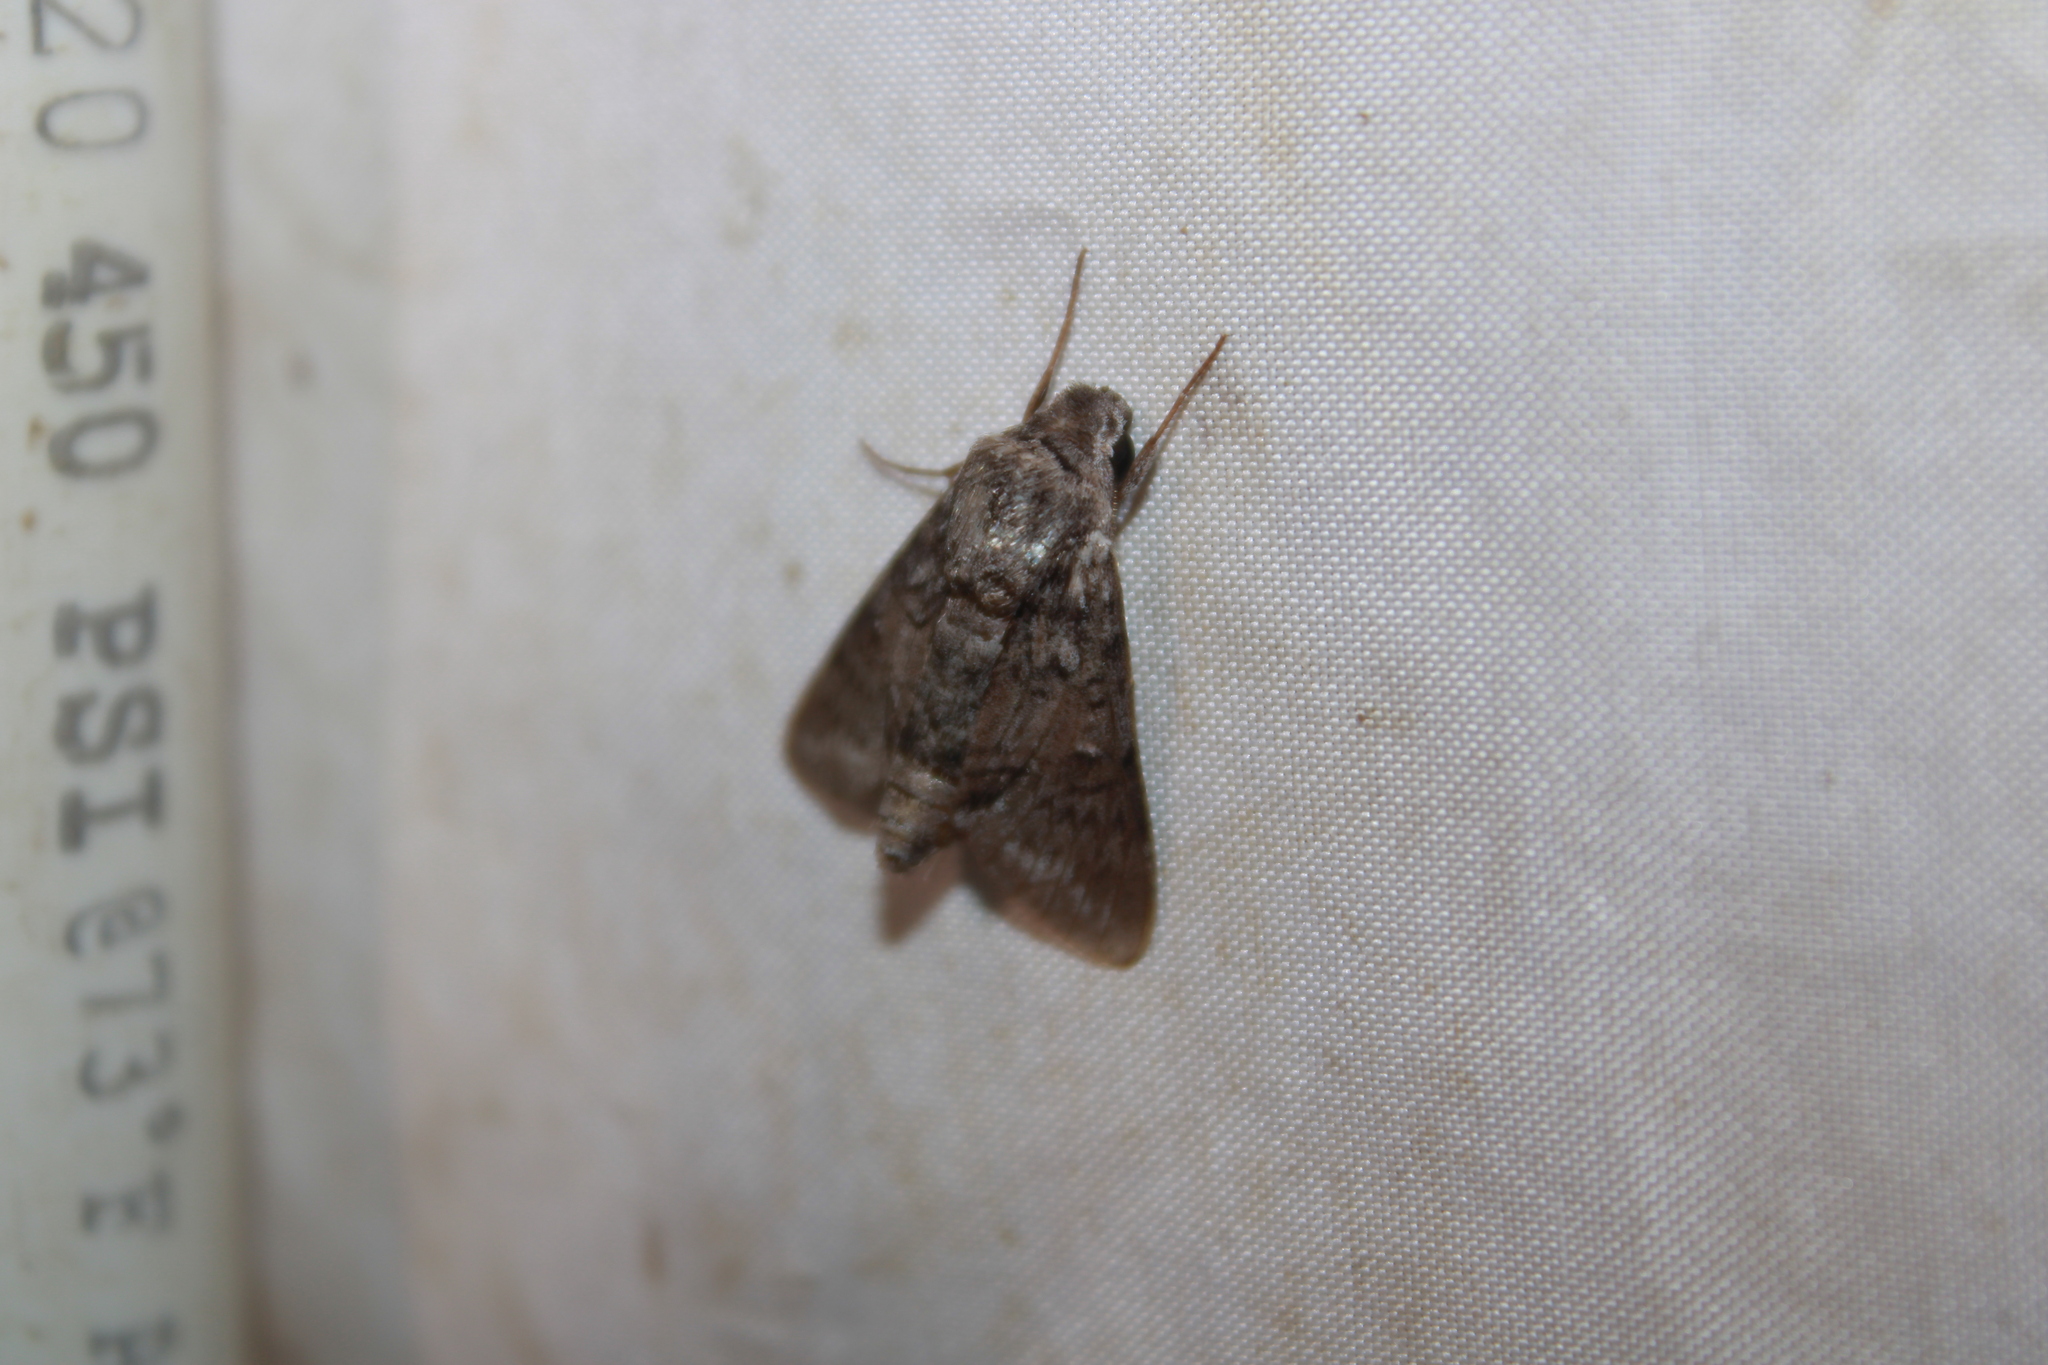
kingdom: Animalia
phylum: Arthropoda
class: Insecta
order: Lepidoptera
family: Sphingidae
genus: Cautethia
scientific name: Cautethia grotei
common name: Grote's sphinx
